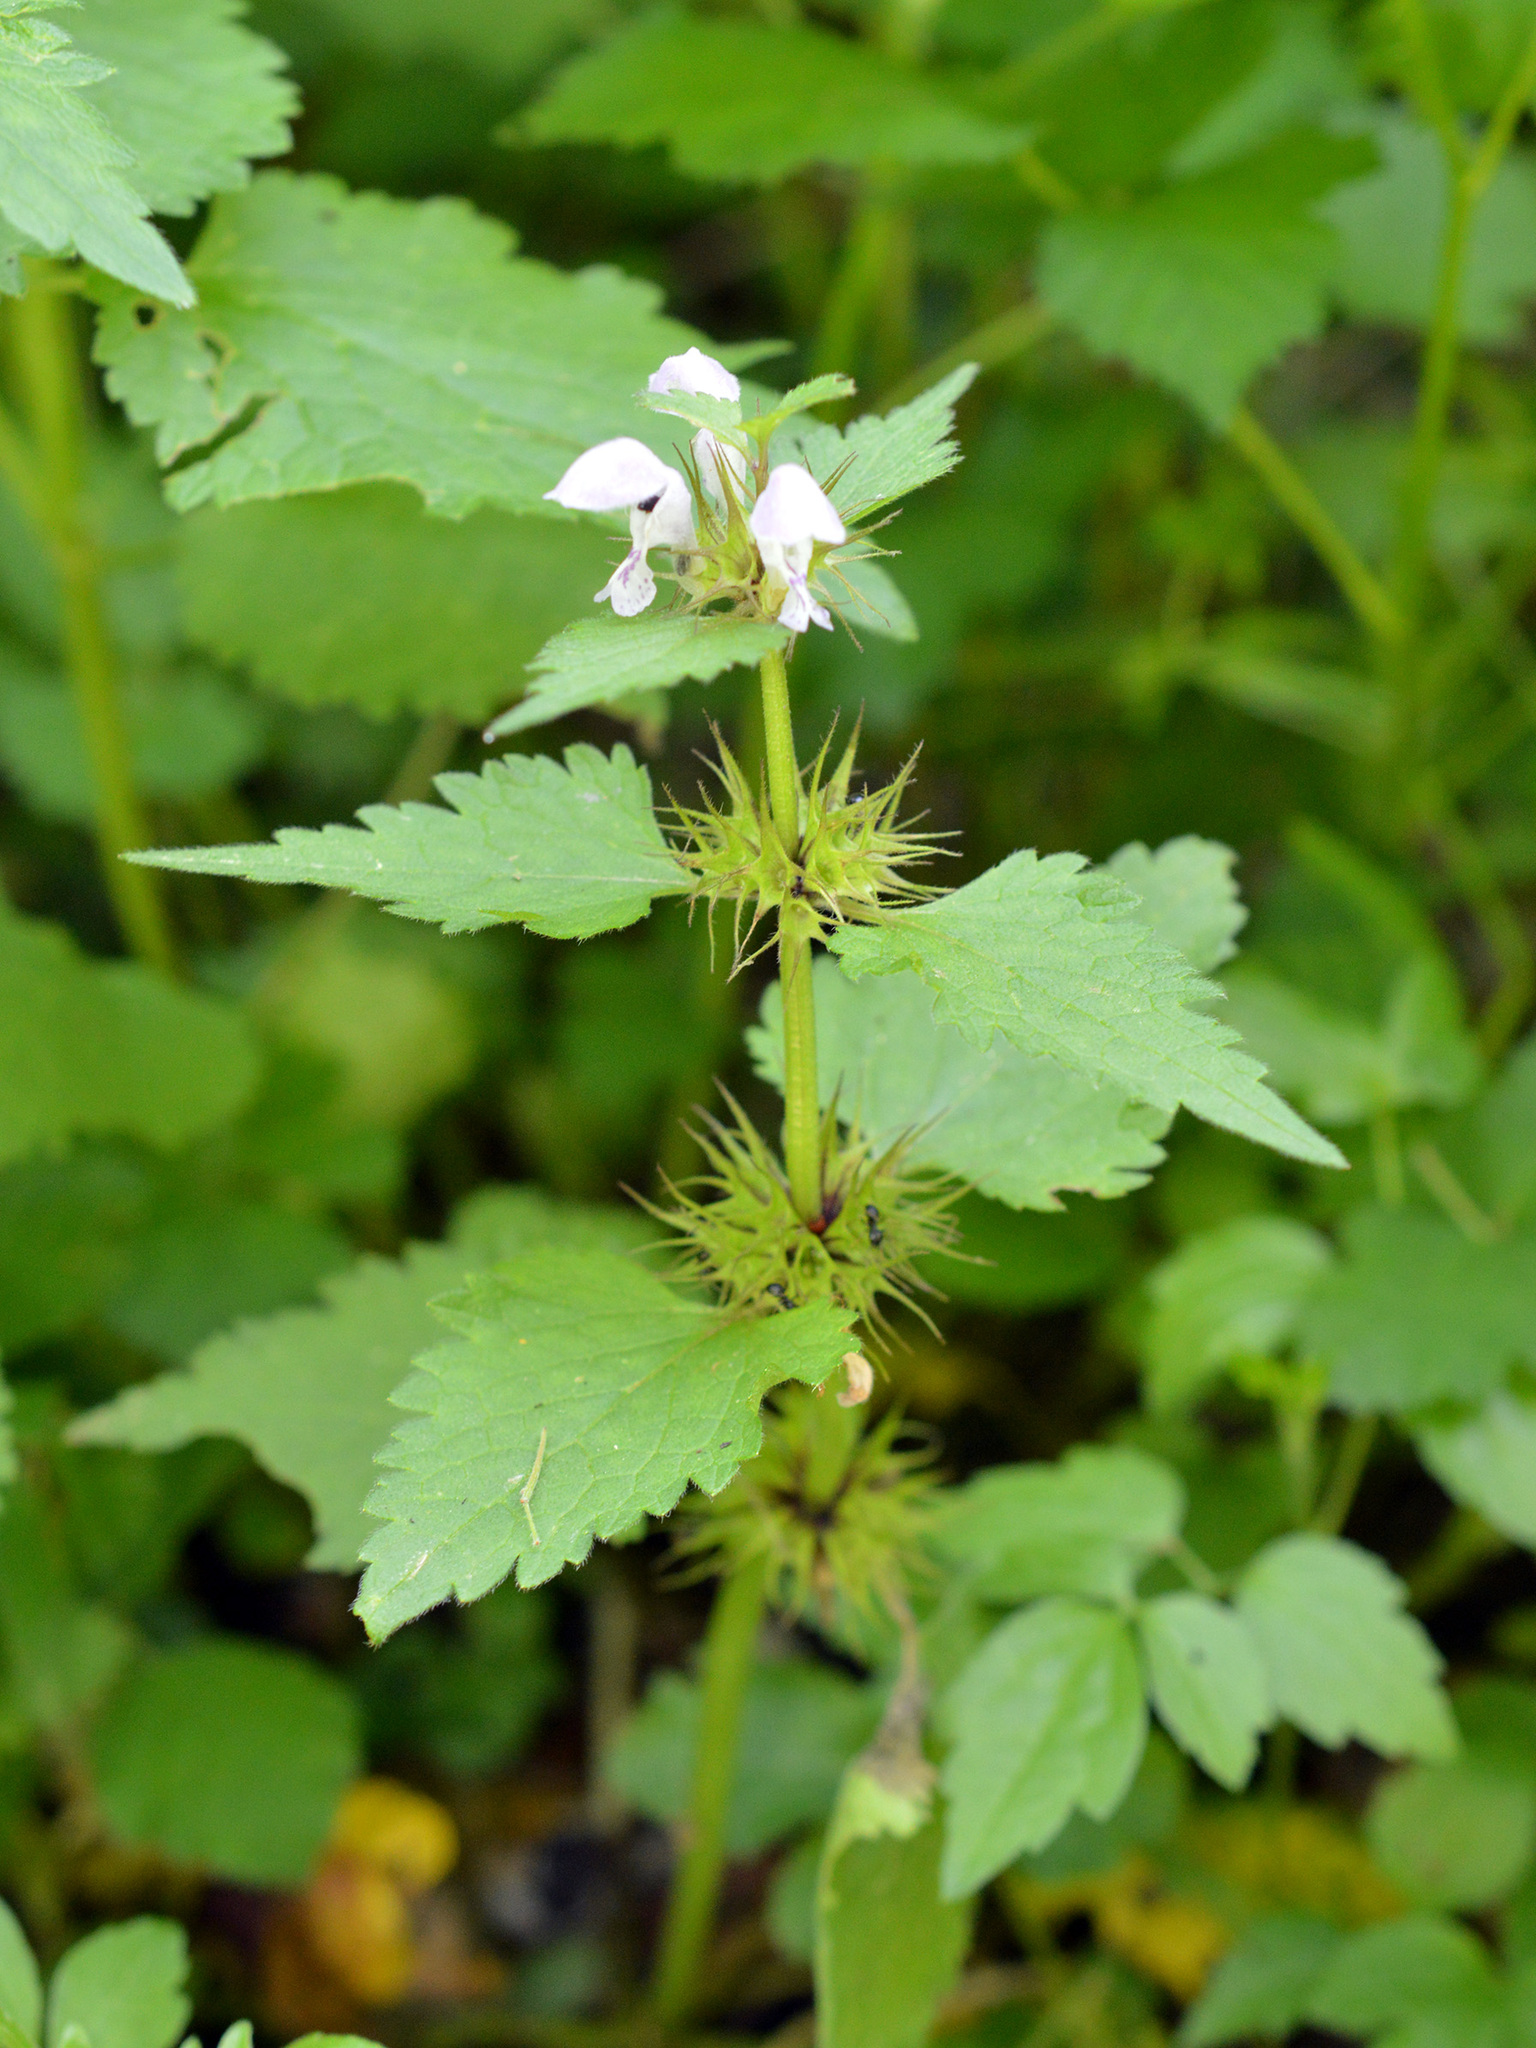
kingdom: Plantae
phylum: Tracheophyta
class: Magnoliopsida
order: Lamiales
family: Lamiaceae
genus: Lamium
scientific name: Lamium maculatum
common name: Spotted dead-nettle
